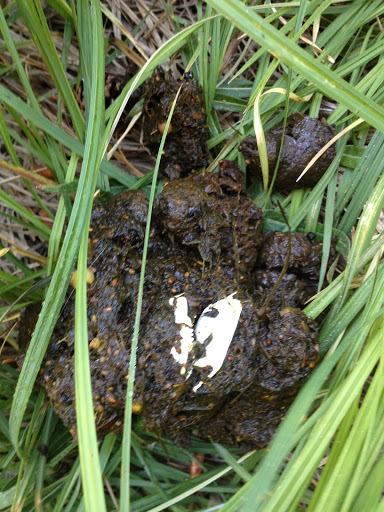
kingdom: Animalia
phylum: Chordata
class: Mammalia
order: Carnivora
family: Ursidae
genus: Ursus
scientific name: Ursus americanus
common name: American black bear
